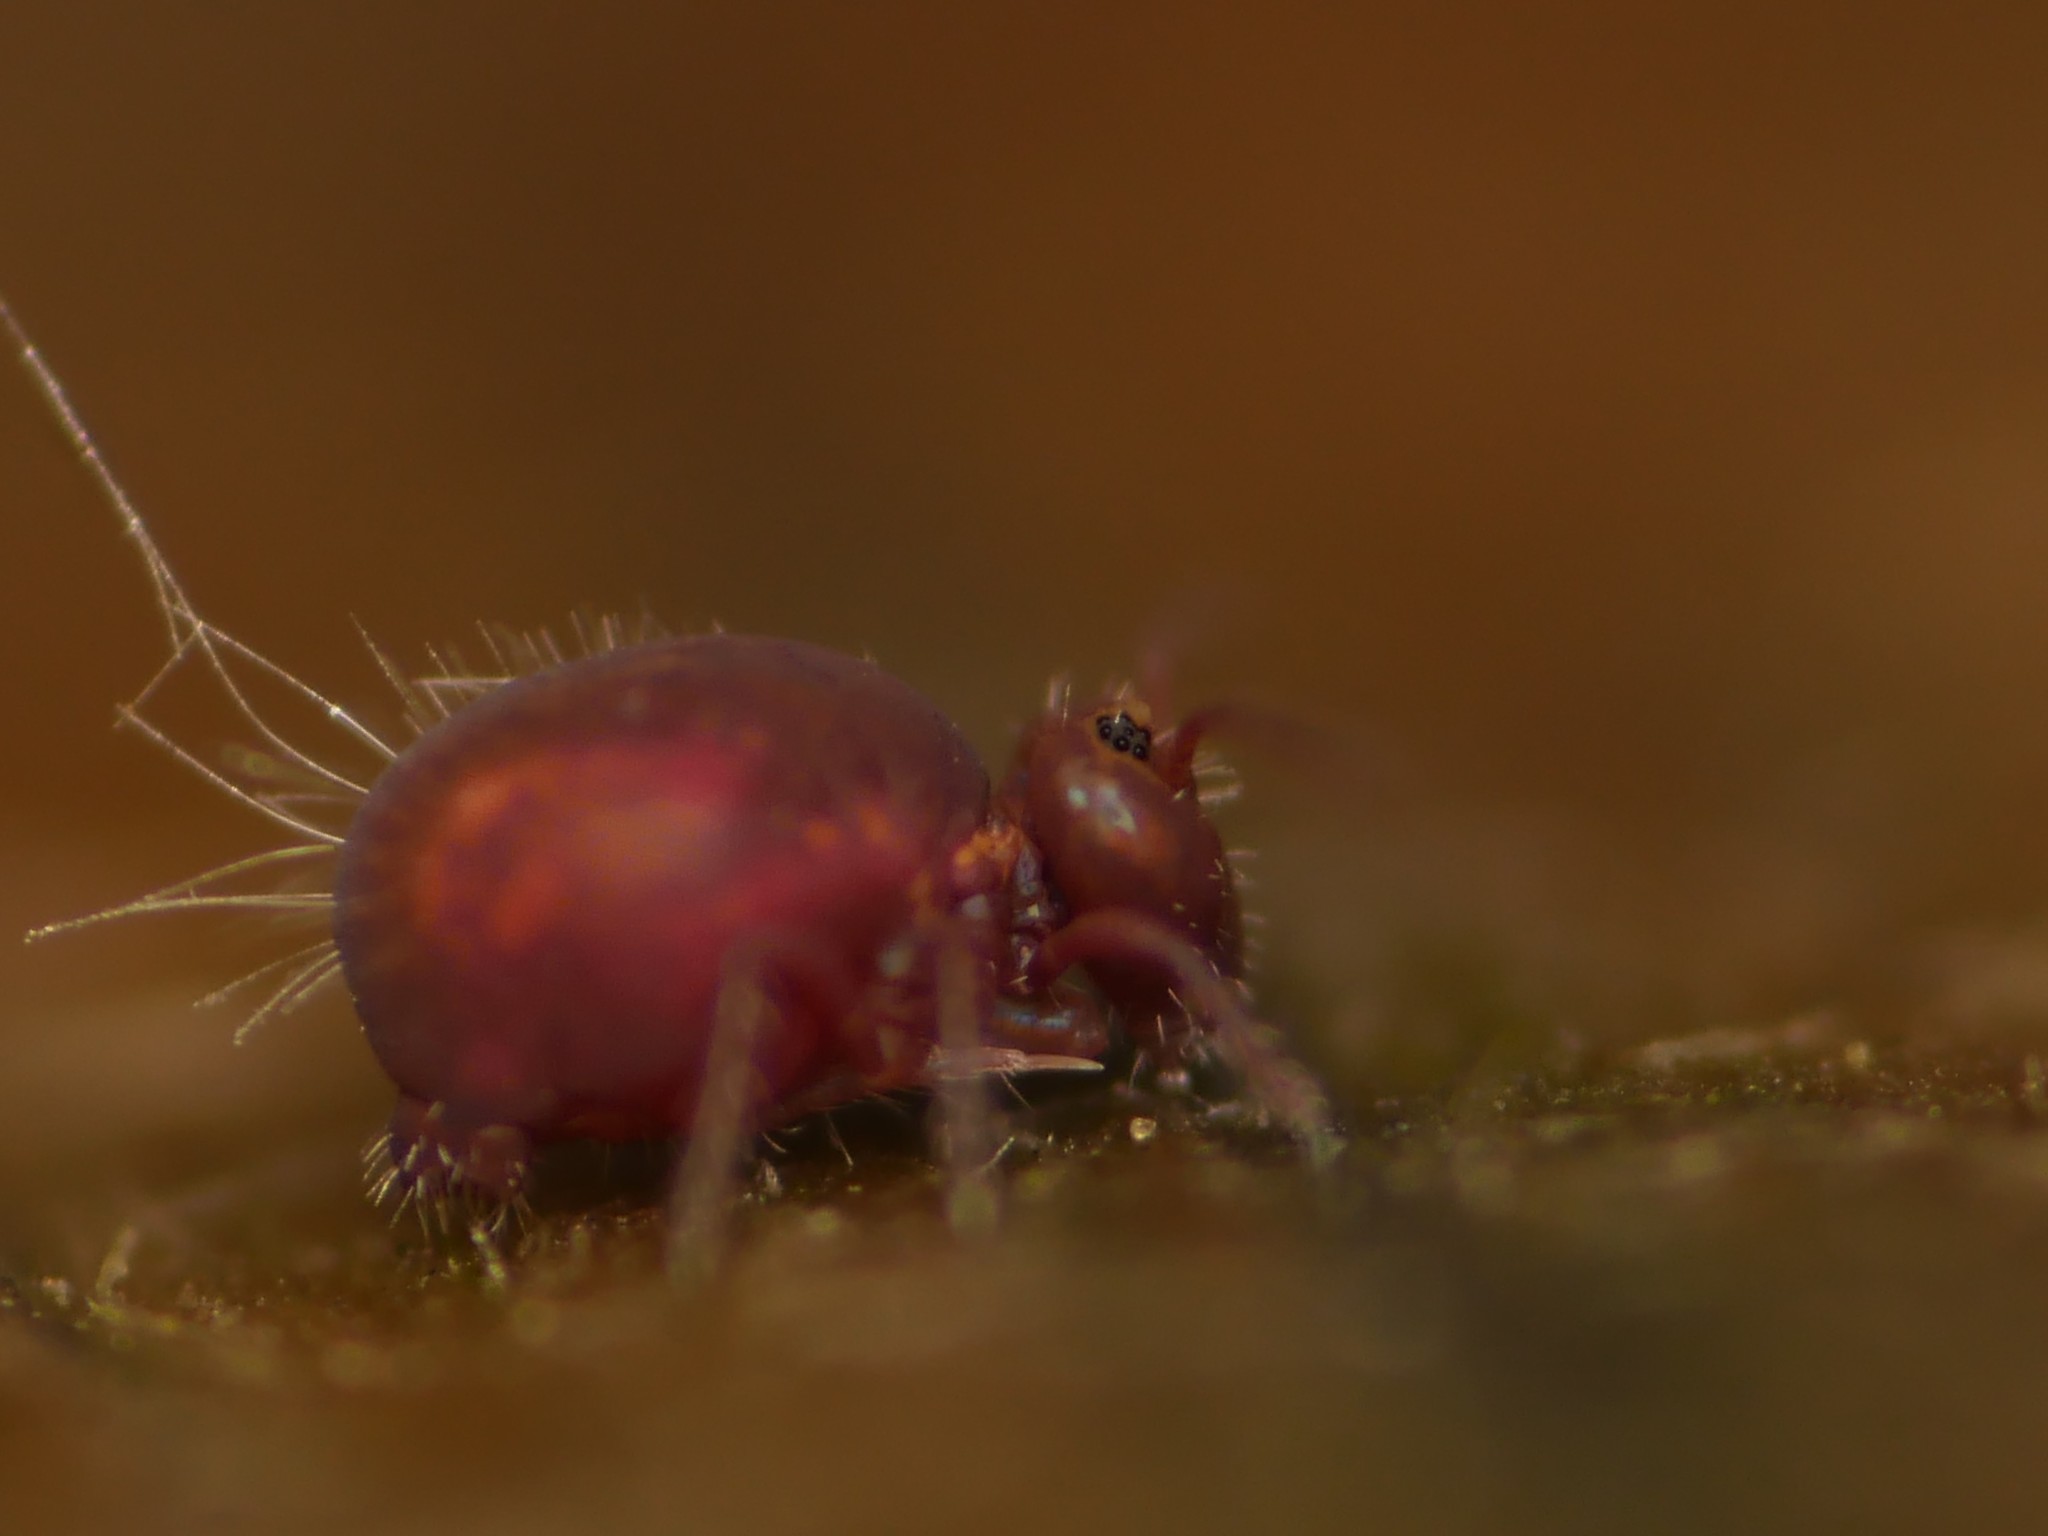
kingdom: Animalia
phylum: Arthropoda
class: Collembola
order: Symphypleona
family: Dicyrtomidae
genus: Dicyrtoma
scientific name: Dicyrtoma fusca
